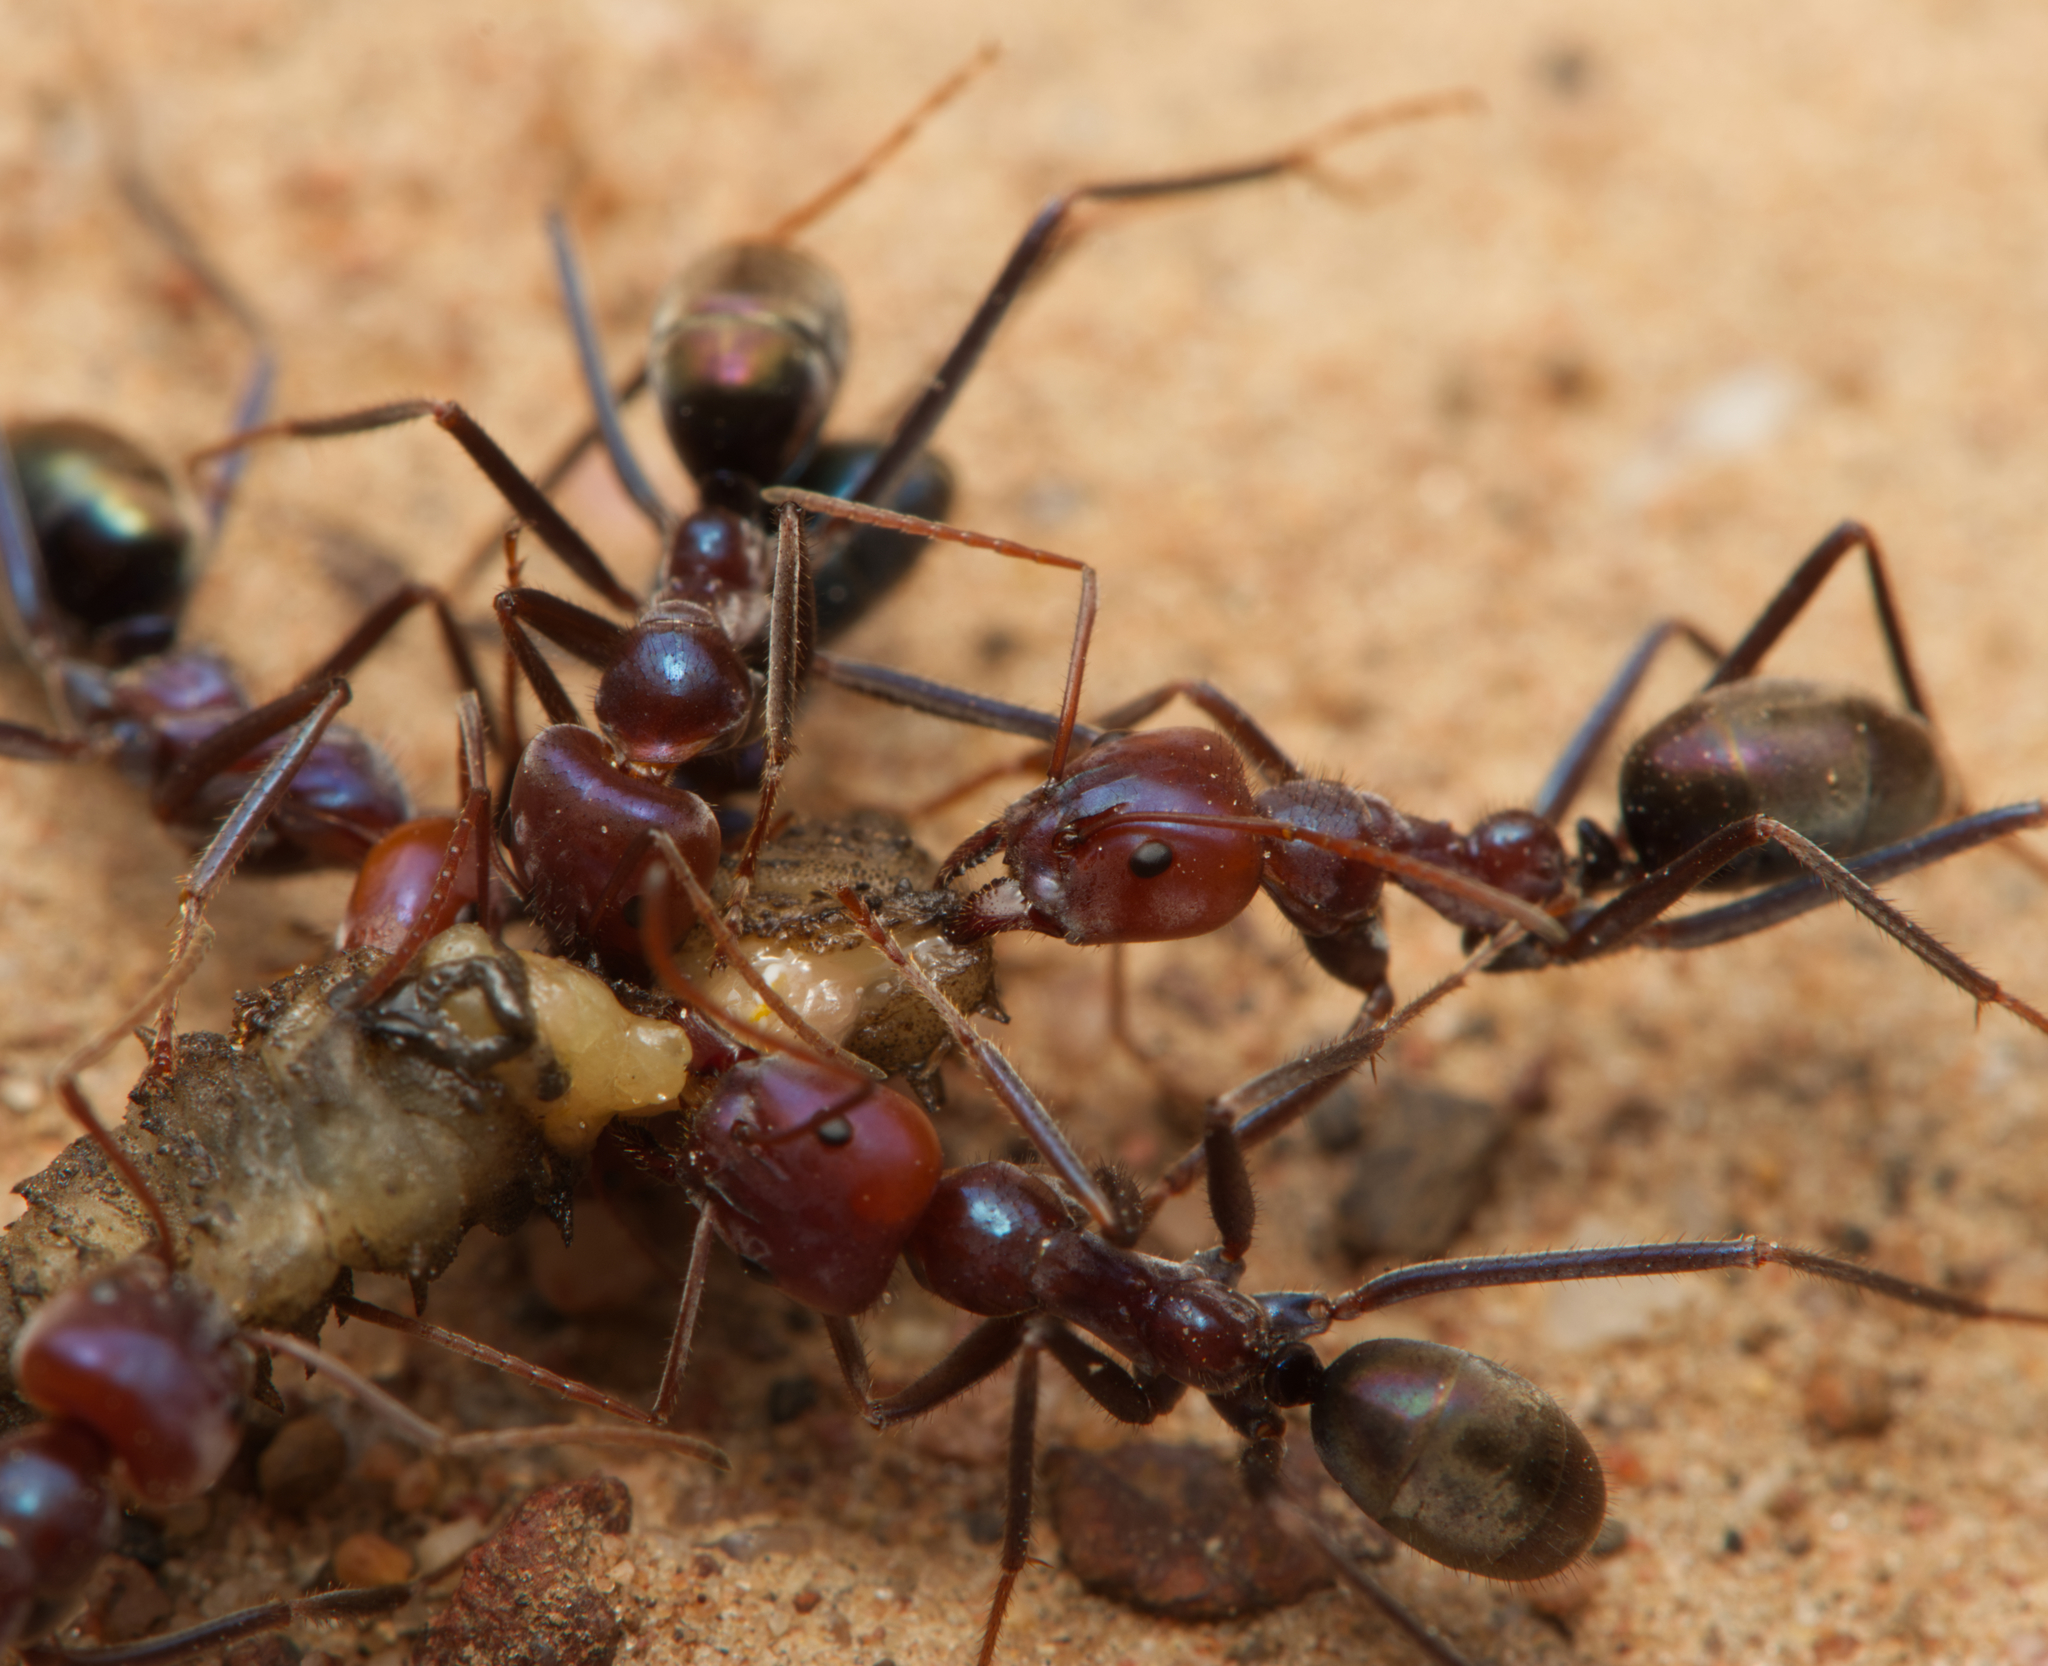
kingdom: Animalia
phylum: Arthropoda
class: Insecta
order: Hymenoptera
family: Formicidae
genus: Iridomyrmex
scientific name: Iridomyrmex purpureus
